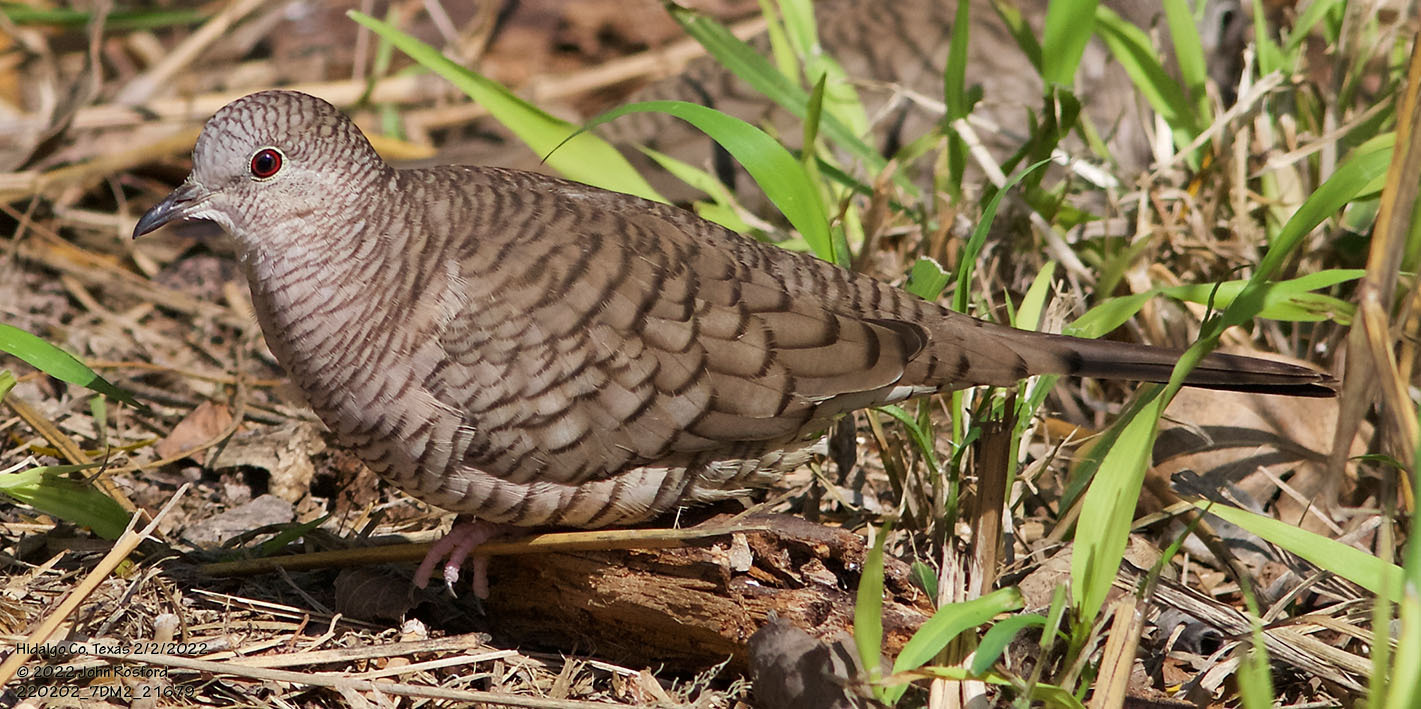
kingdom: Animalia
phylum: Chordata
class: Aves
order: Columbiformes
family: Columbidae
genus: Columbina
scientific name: Columbina inca
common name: Inca dove
